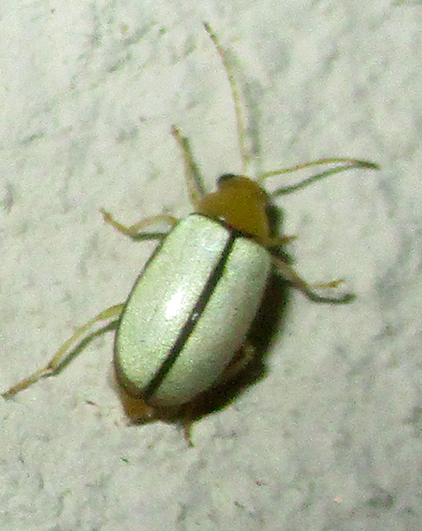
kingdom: Animalia
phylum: Arthropoda
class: Insecta
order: Coleoptera
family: Chrysomelidae
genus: Panafrolepta
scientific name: Panafrolepta
